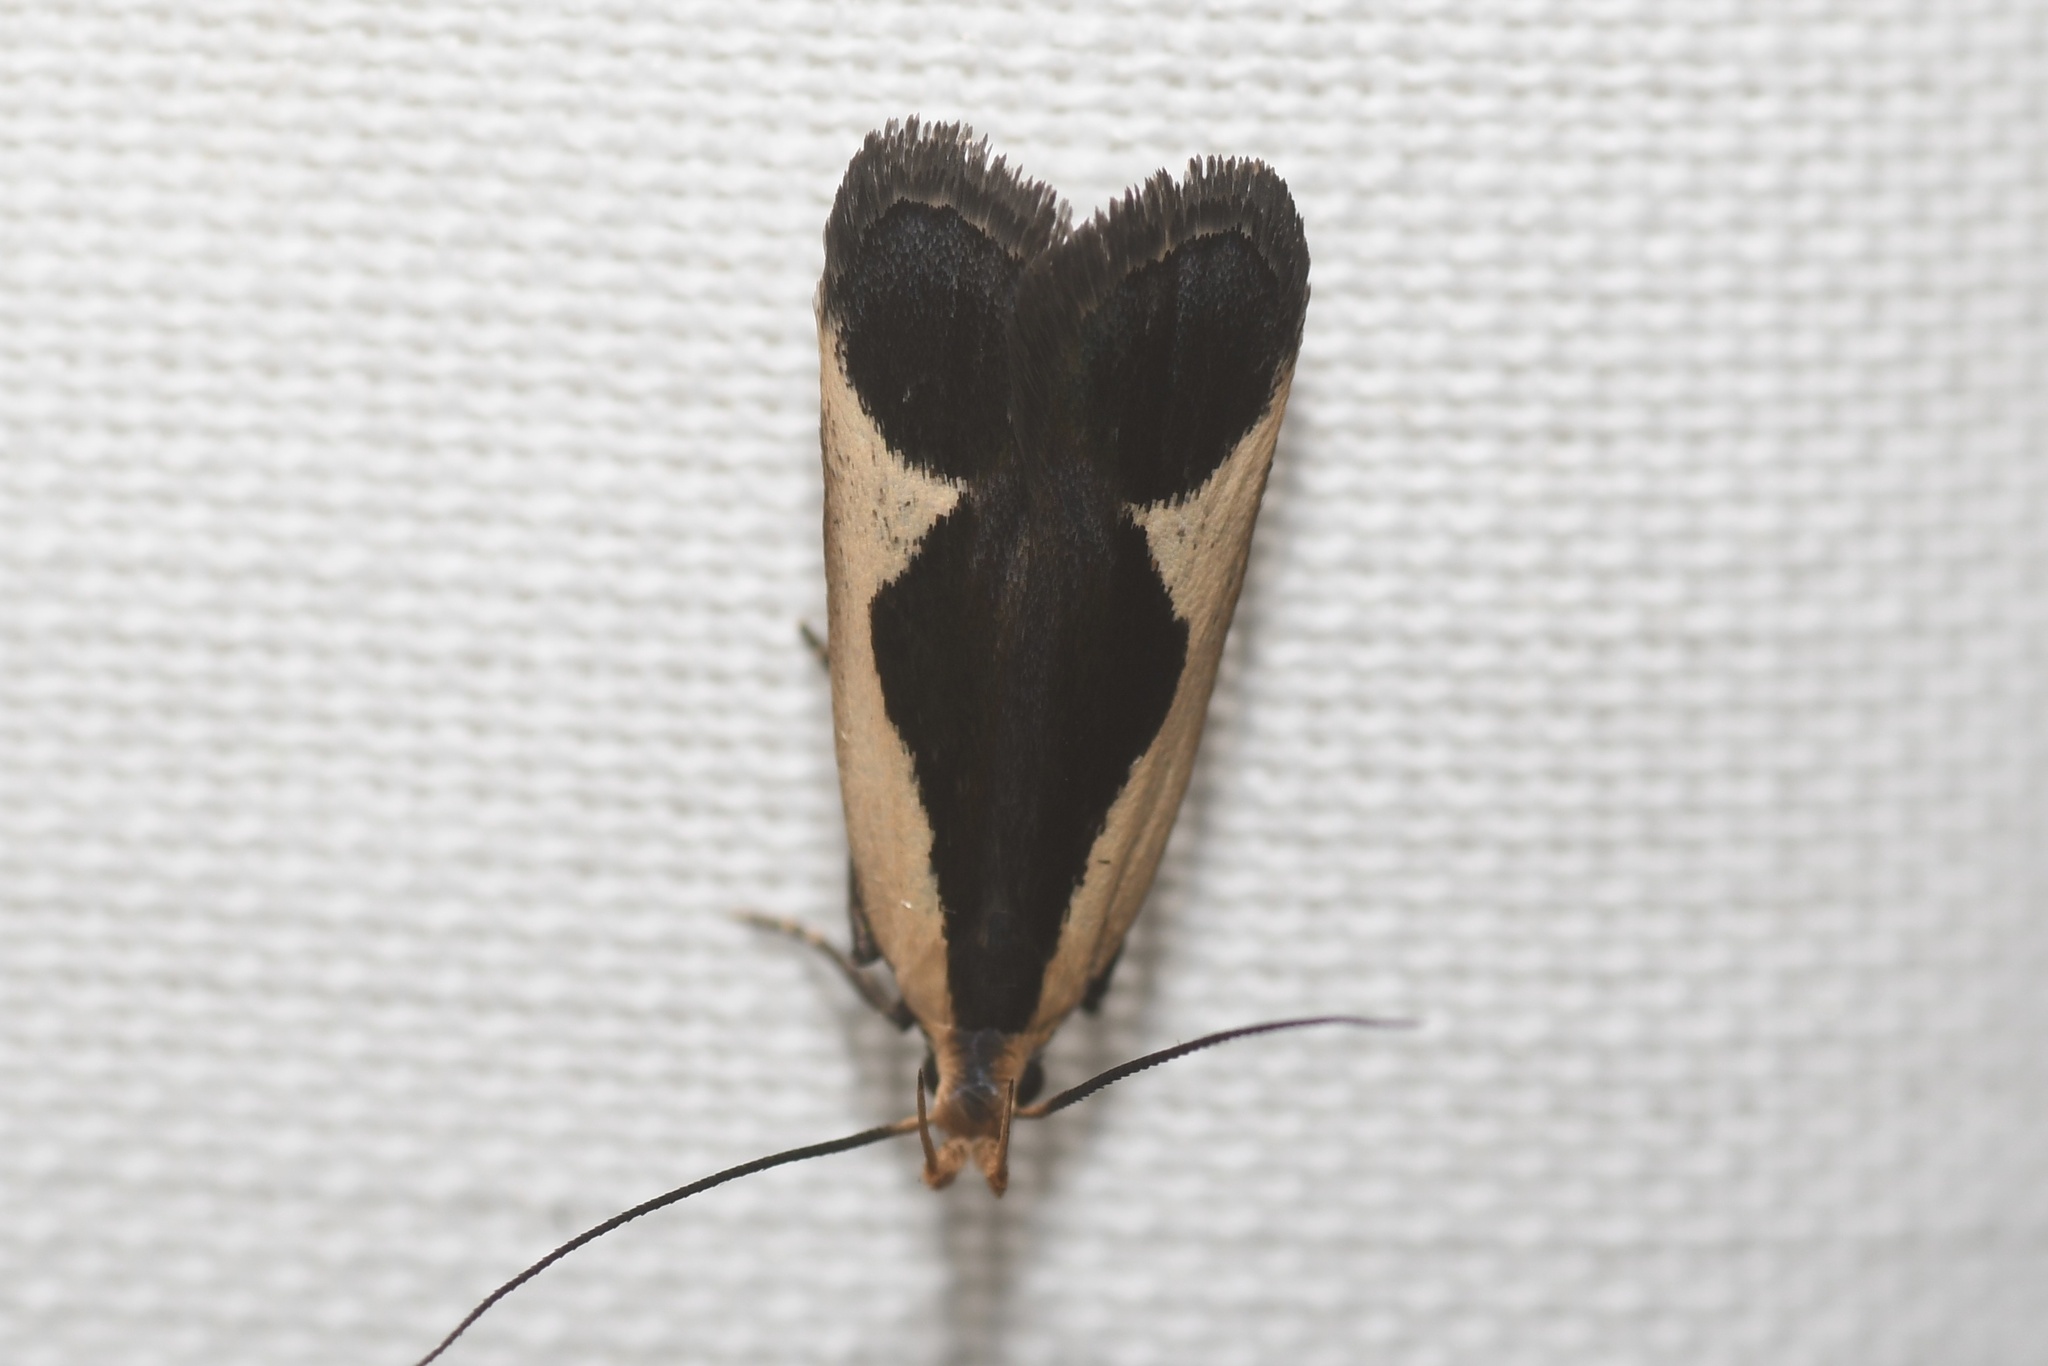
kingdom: Animalia
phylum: Arthropoda
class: Insecta
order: Lepidoptera
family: Gelechiidae
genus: Dichomeris
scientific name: Dichomeris flavocostella
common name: Cream-edged dichomeris moth
